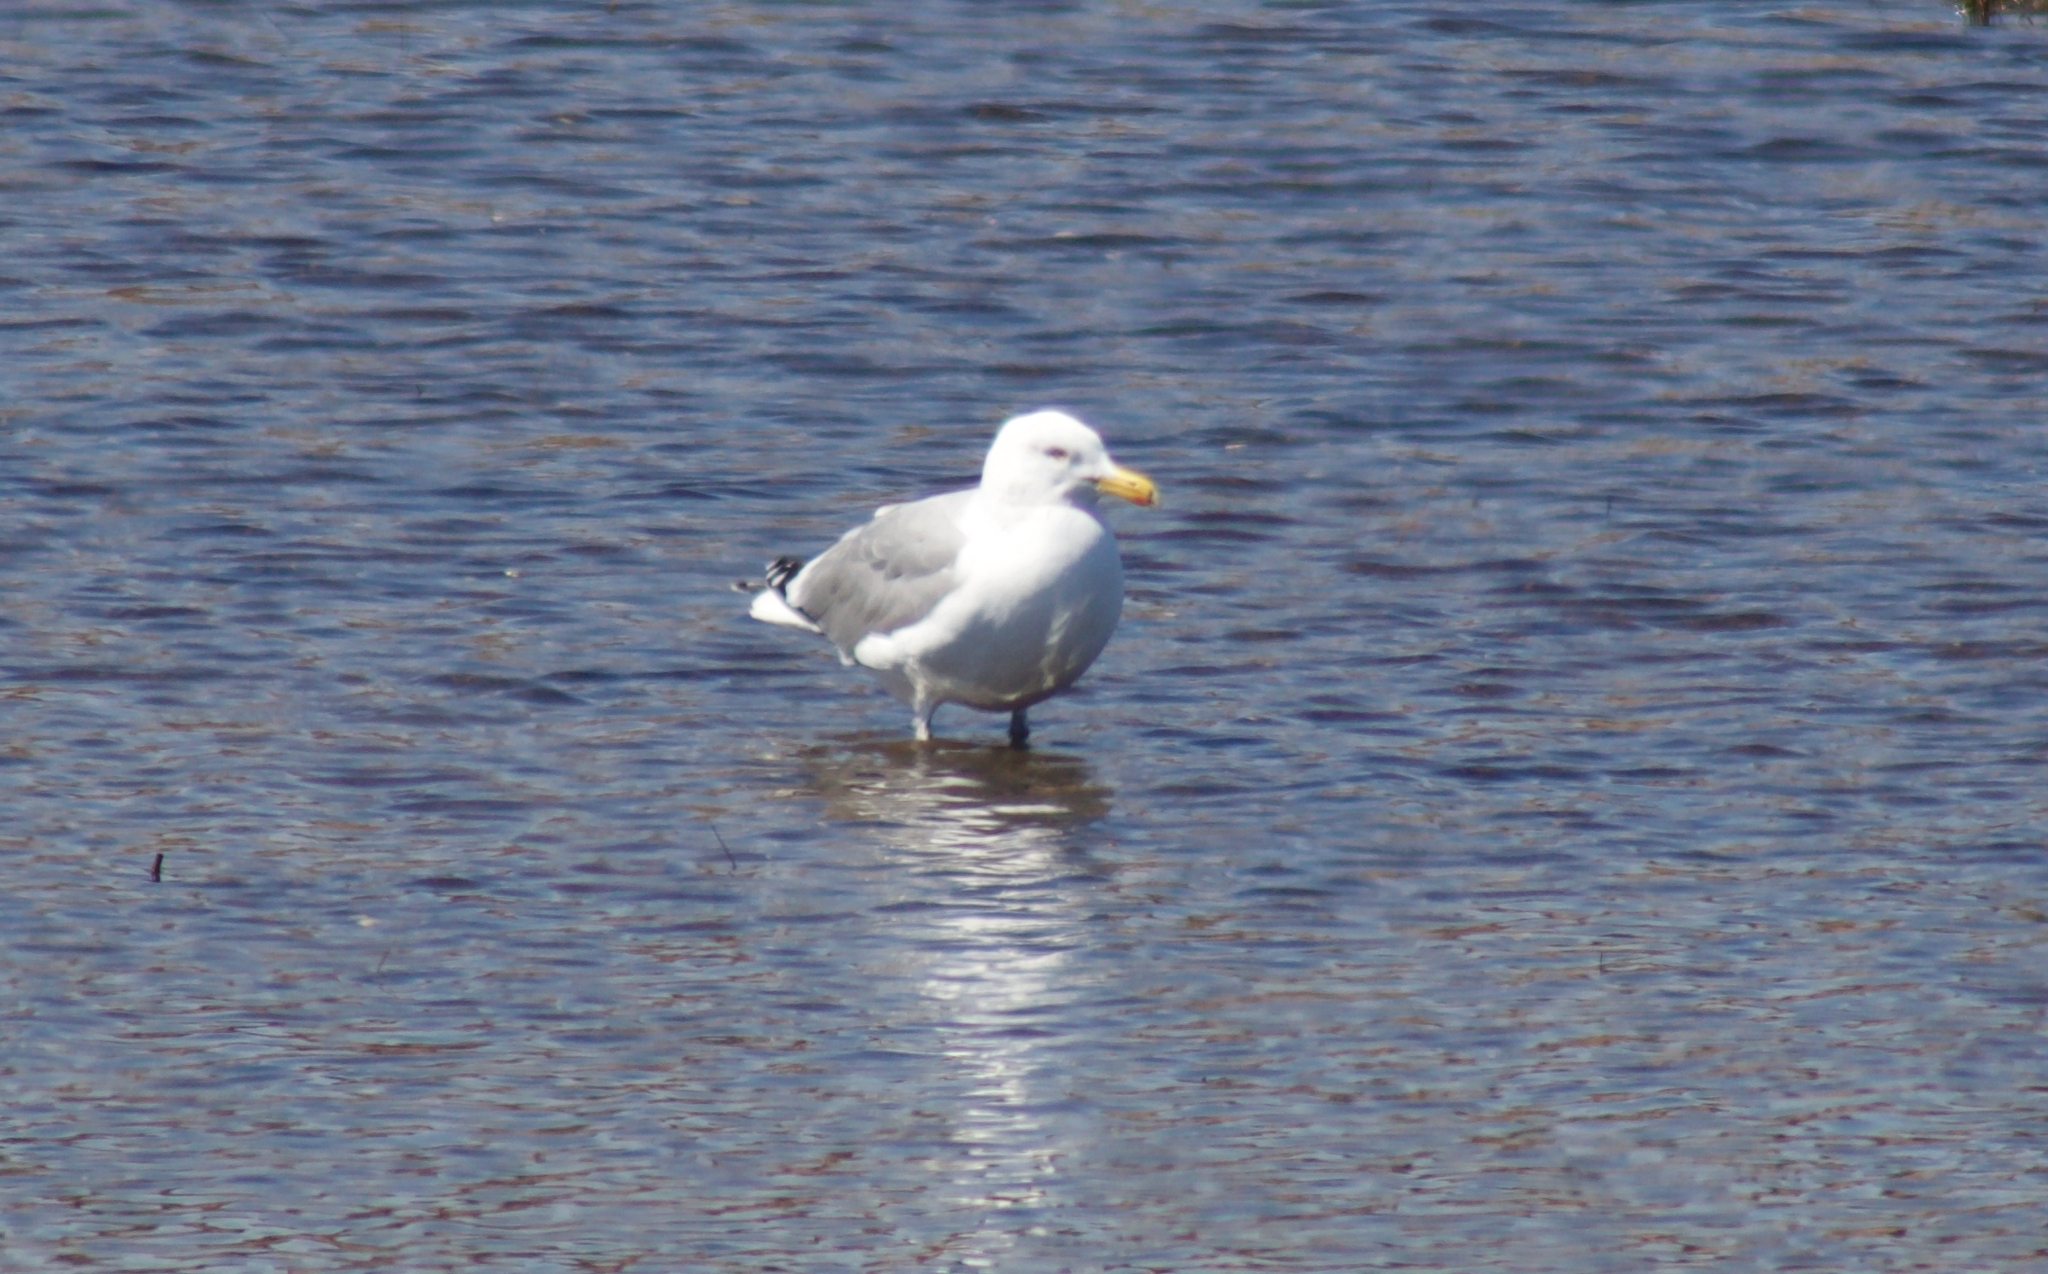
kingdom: Animalia
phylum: Chordata
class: Aves
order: Charadriiformes
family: Laridae
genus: Larus
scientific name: Larus argentatus
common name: Herring gull
